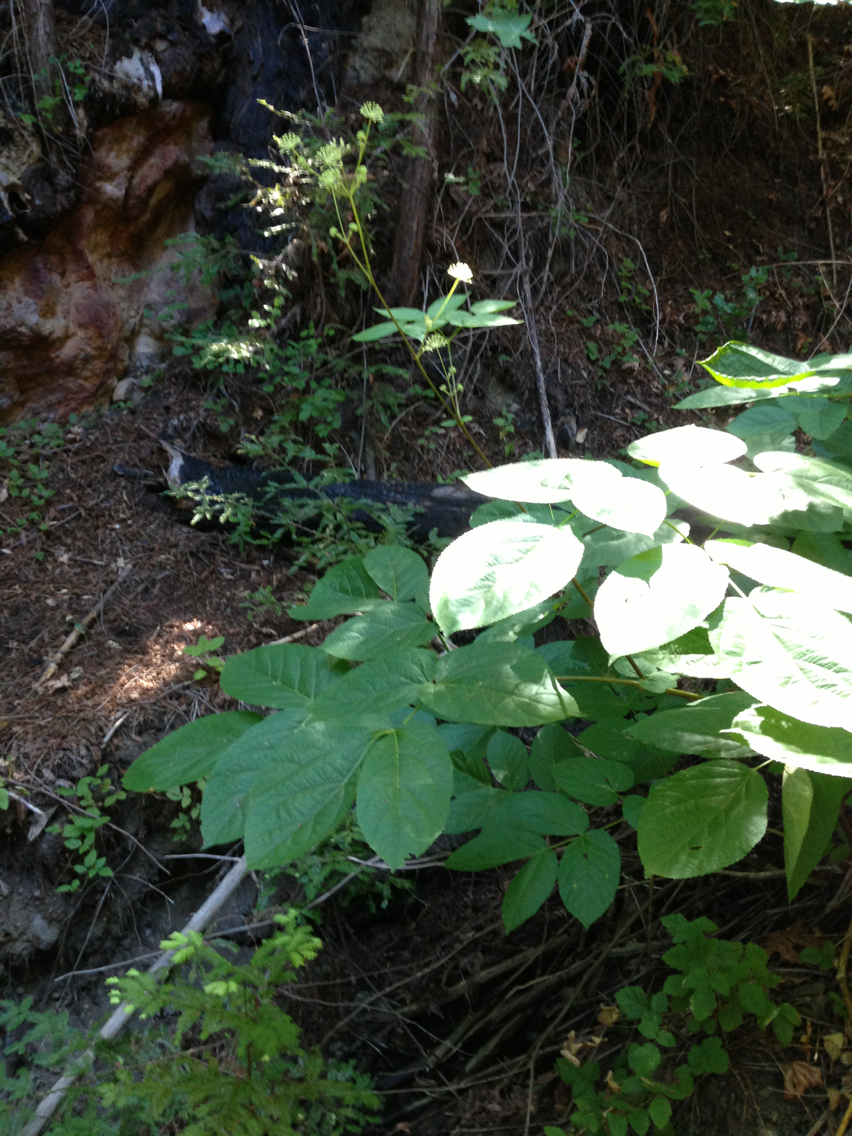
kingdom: Plantae
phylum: Tracheophyta
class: Magnoliopsida
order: Apiales
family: Araliaceae
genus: Aralia
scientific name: Aralia californica
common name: California-ginseng
